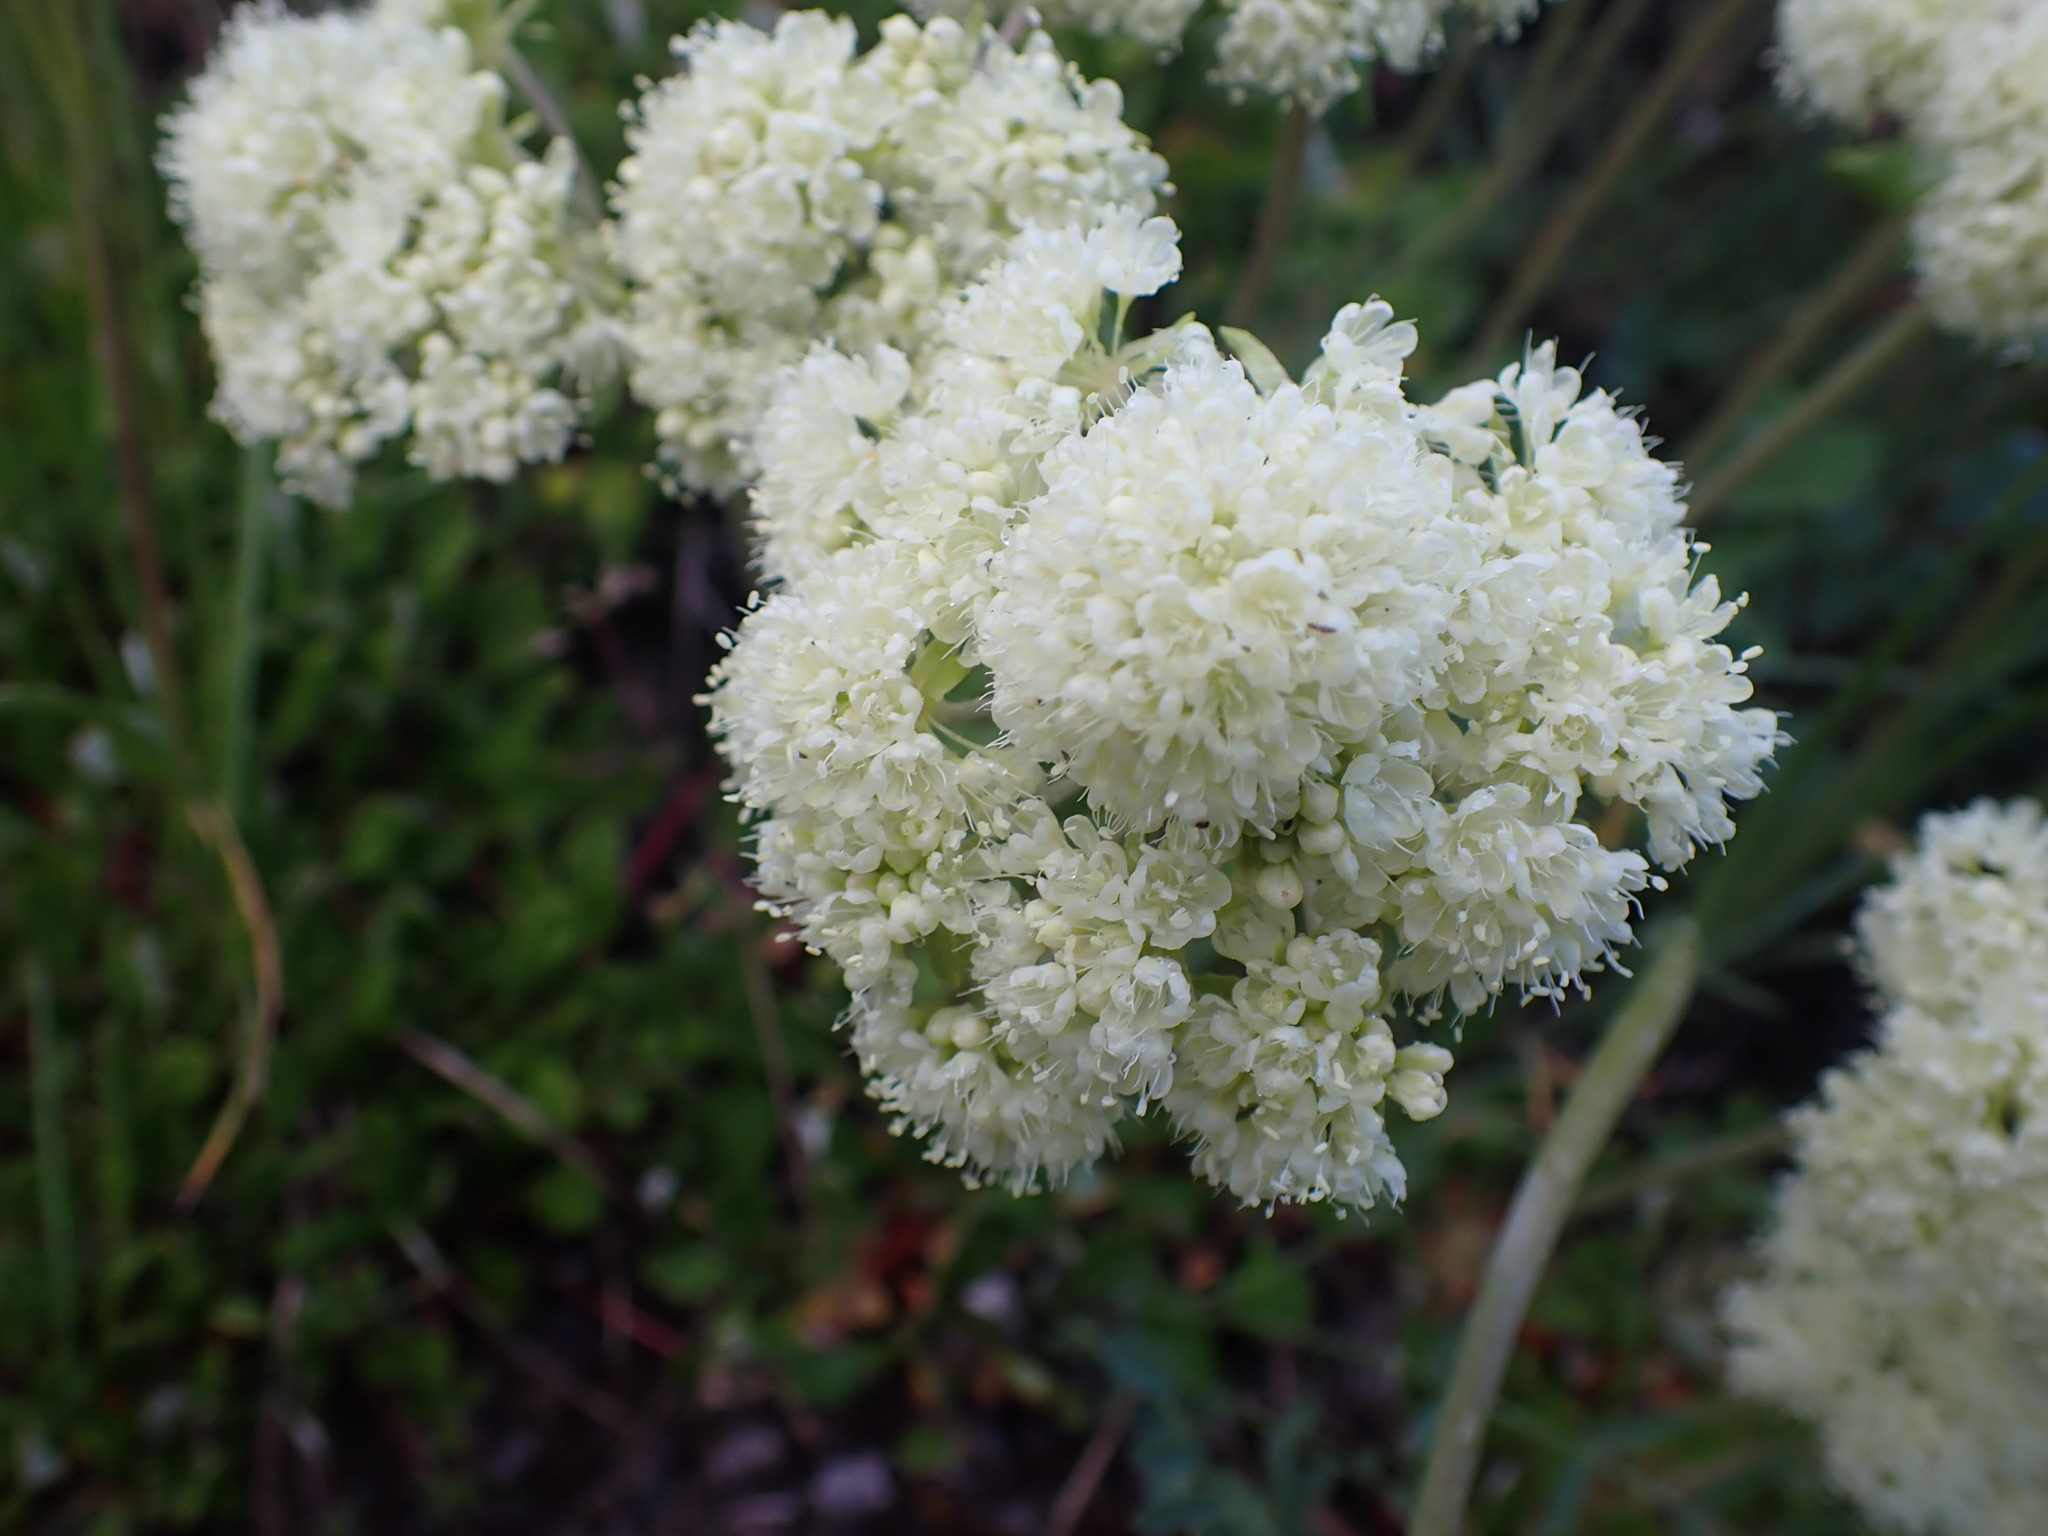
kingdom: Plantae
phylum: Tracheophyta
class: Magnoliopsida
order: Caryophyllales
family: Polygonaceae
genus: Eriogonum
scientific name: Eriogonum umbellatum
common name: Sulfur-buckwheat
